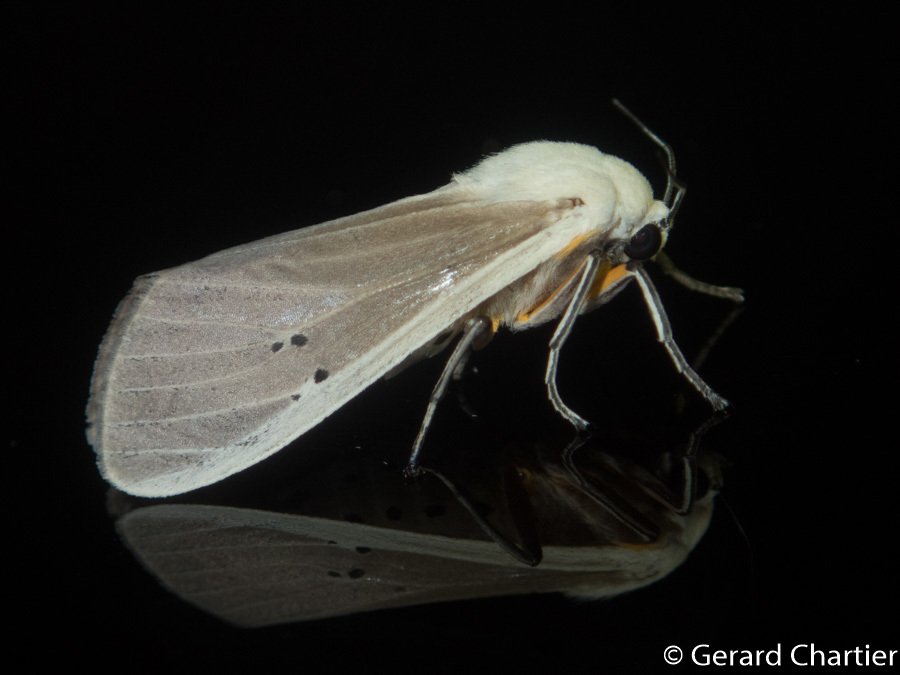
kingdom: Animalia
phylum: Arthropoda
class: Insecta
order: Lepidoptera
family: Erebidae
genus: Creatonotos
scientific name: Creatonotos transiens
